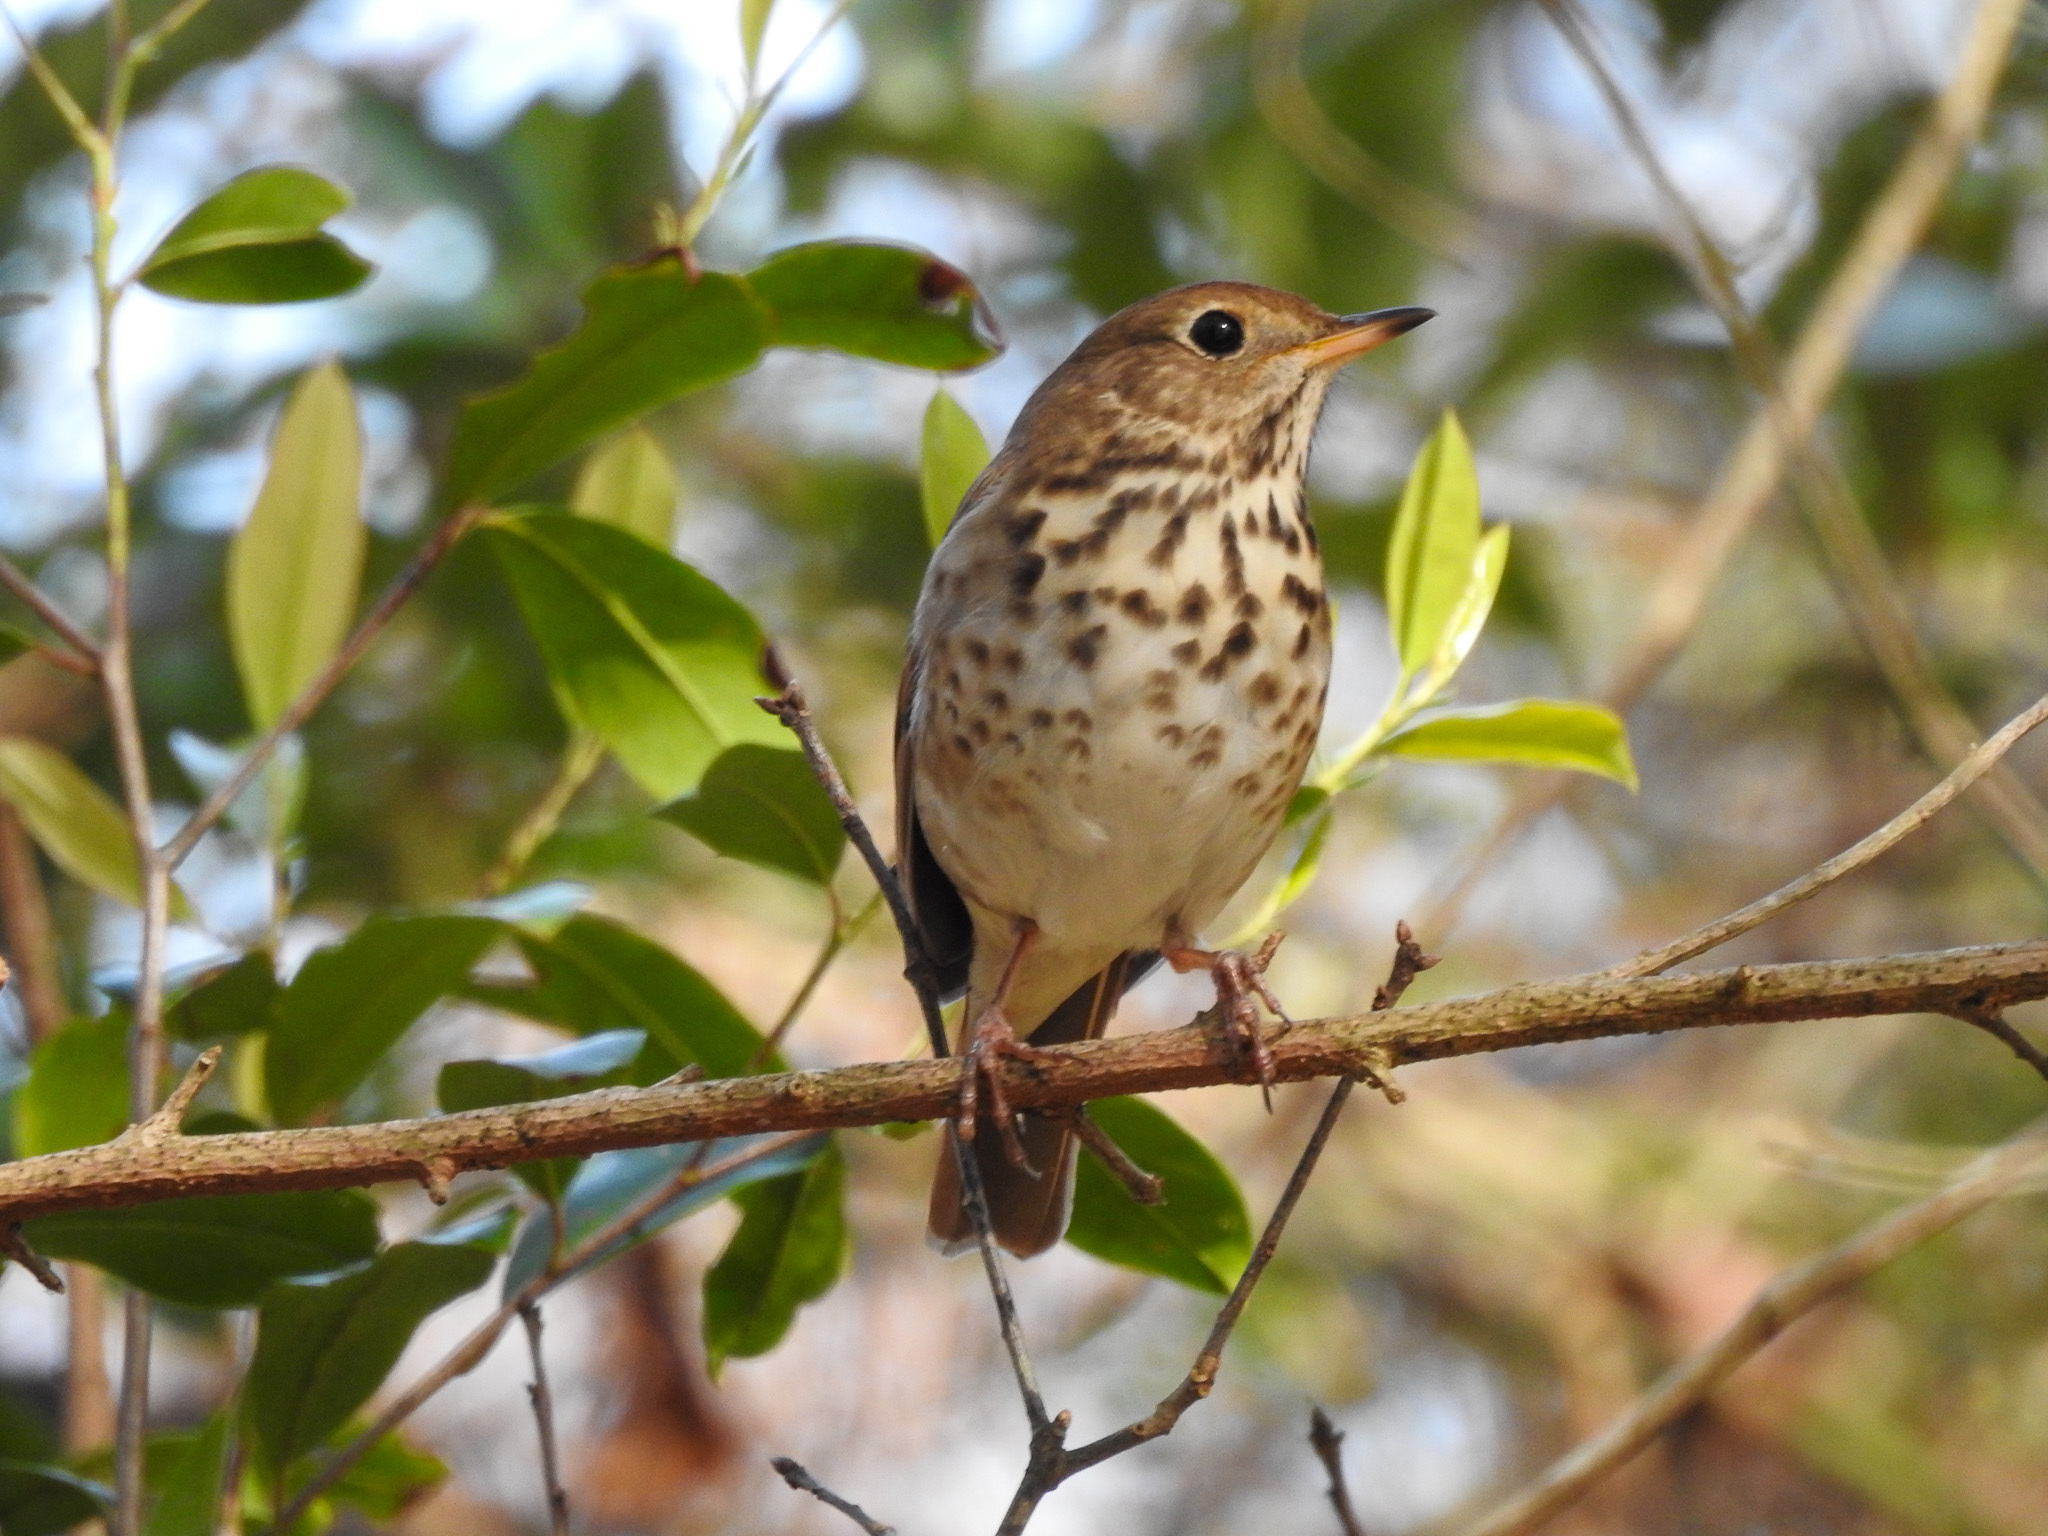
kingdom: Animalia
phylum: Chordata
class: Aves
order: Passeriformes
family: Turdidae
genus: Catharus
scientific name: Catharus guttatus
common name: Hermit thrush
